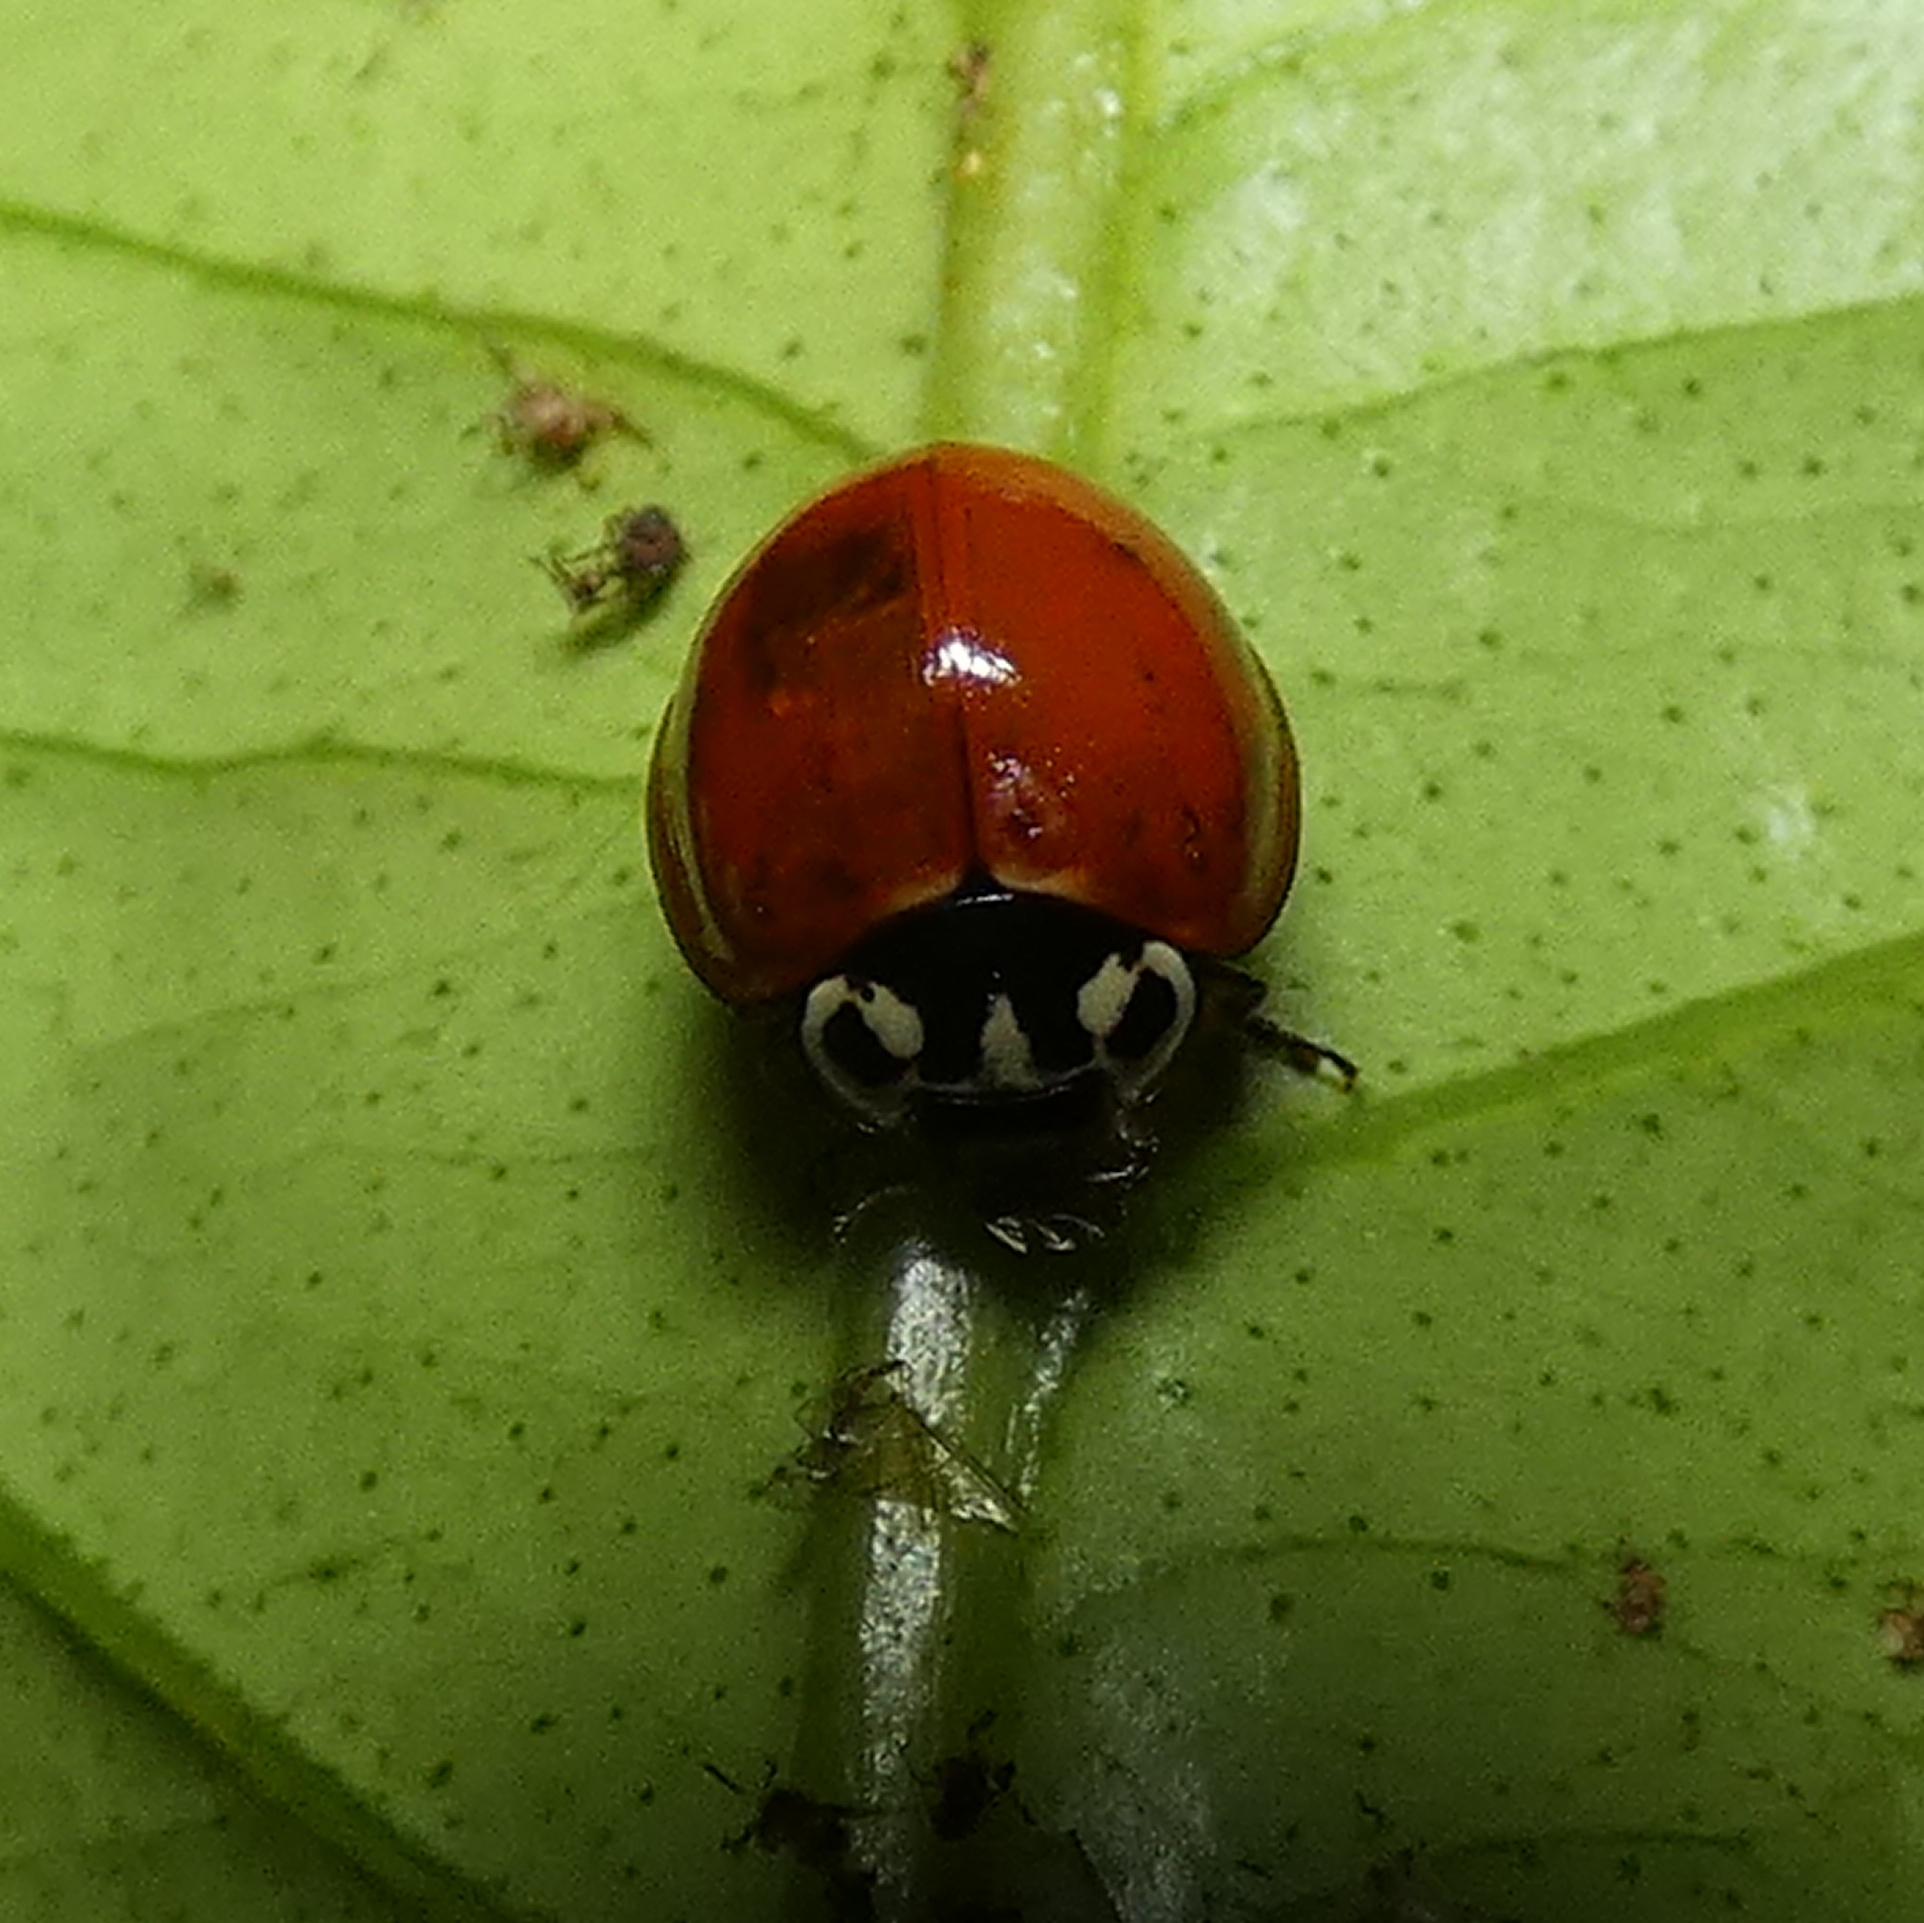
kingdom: Animalia
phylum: Arthropoda
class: Insecta
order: Coleoptera
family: Coccinellidae
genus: Cycloneda
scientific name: Cycloneda sanguinea
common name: Ladybird beetle
